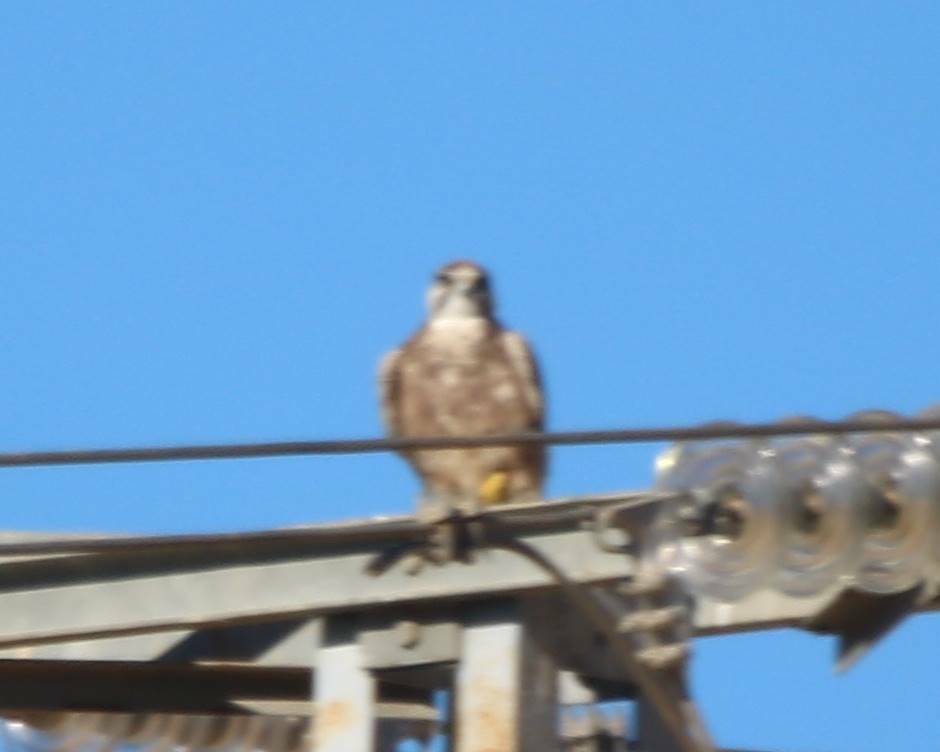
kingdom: Animalia
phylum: Chordata
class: Aves
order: Falconiformes
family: Falconidae
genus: Falco
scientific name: Falco biarmicus
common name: Lanner falcon
